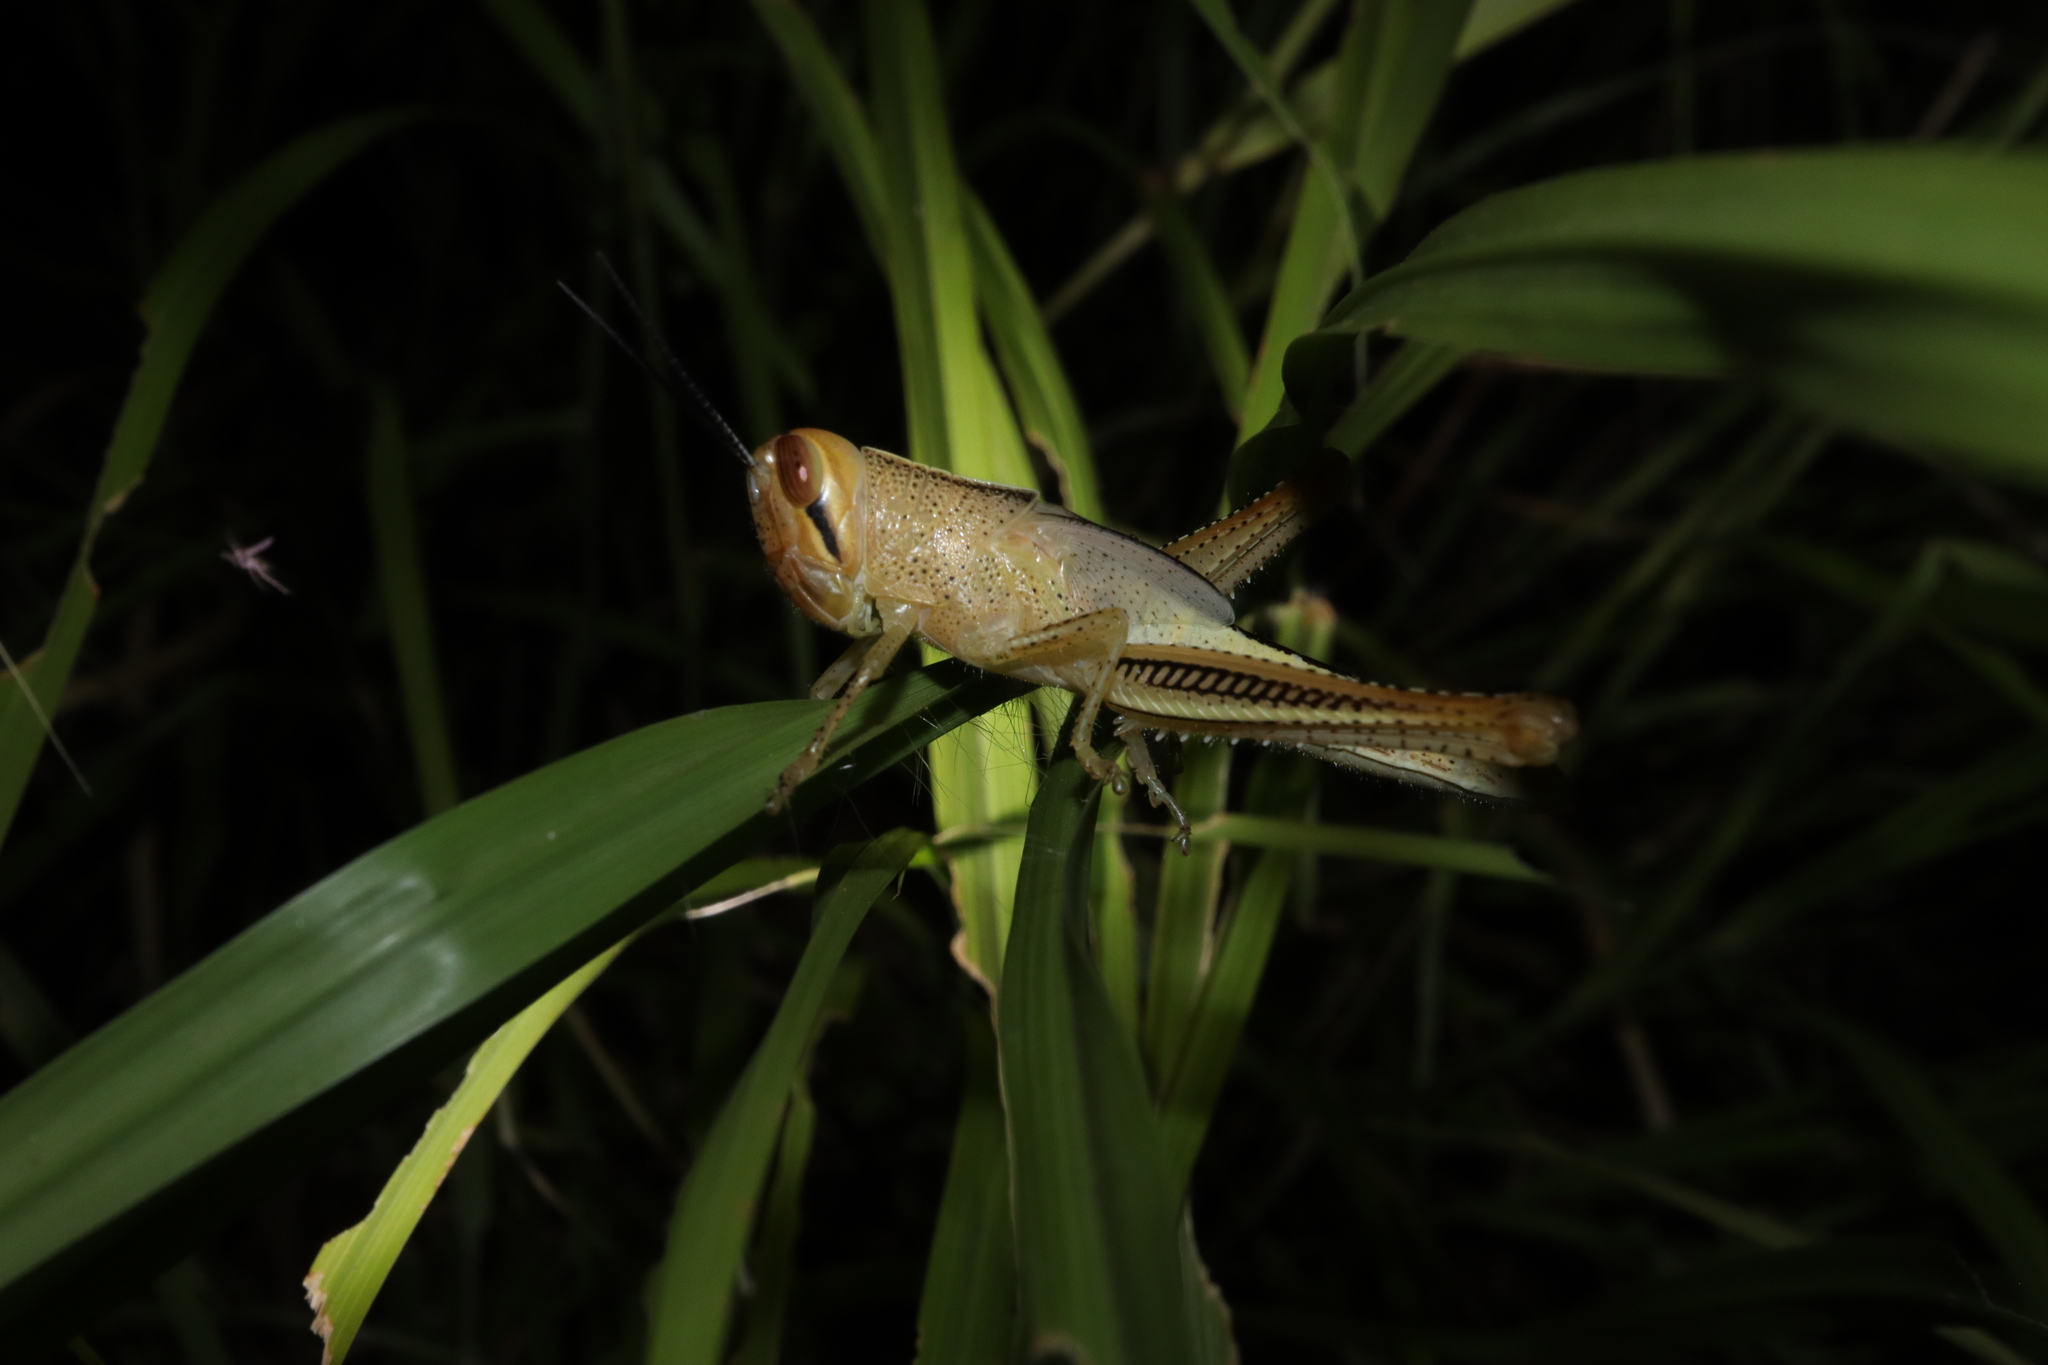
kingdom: Animalia
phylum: Arthropoda
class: Insecta
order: Orthoptera
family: Acrididae
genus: Austracris
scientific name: Austracris guttulosa
